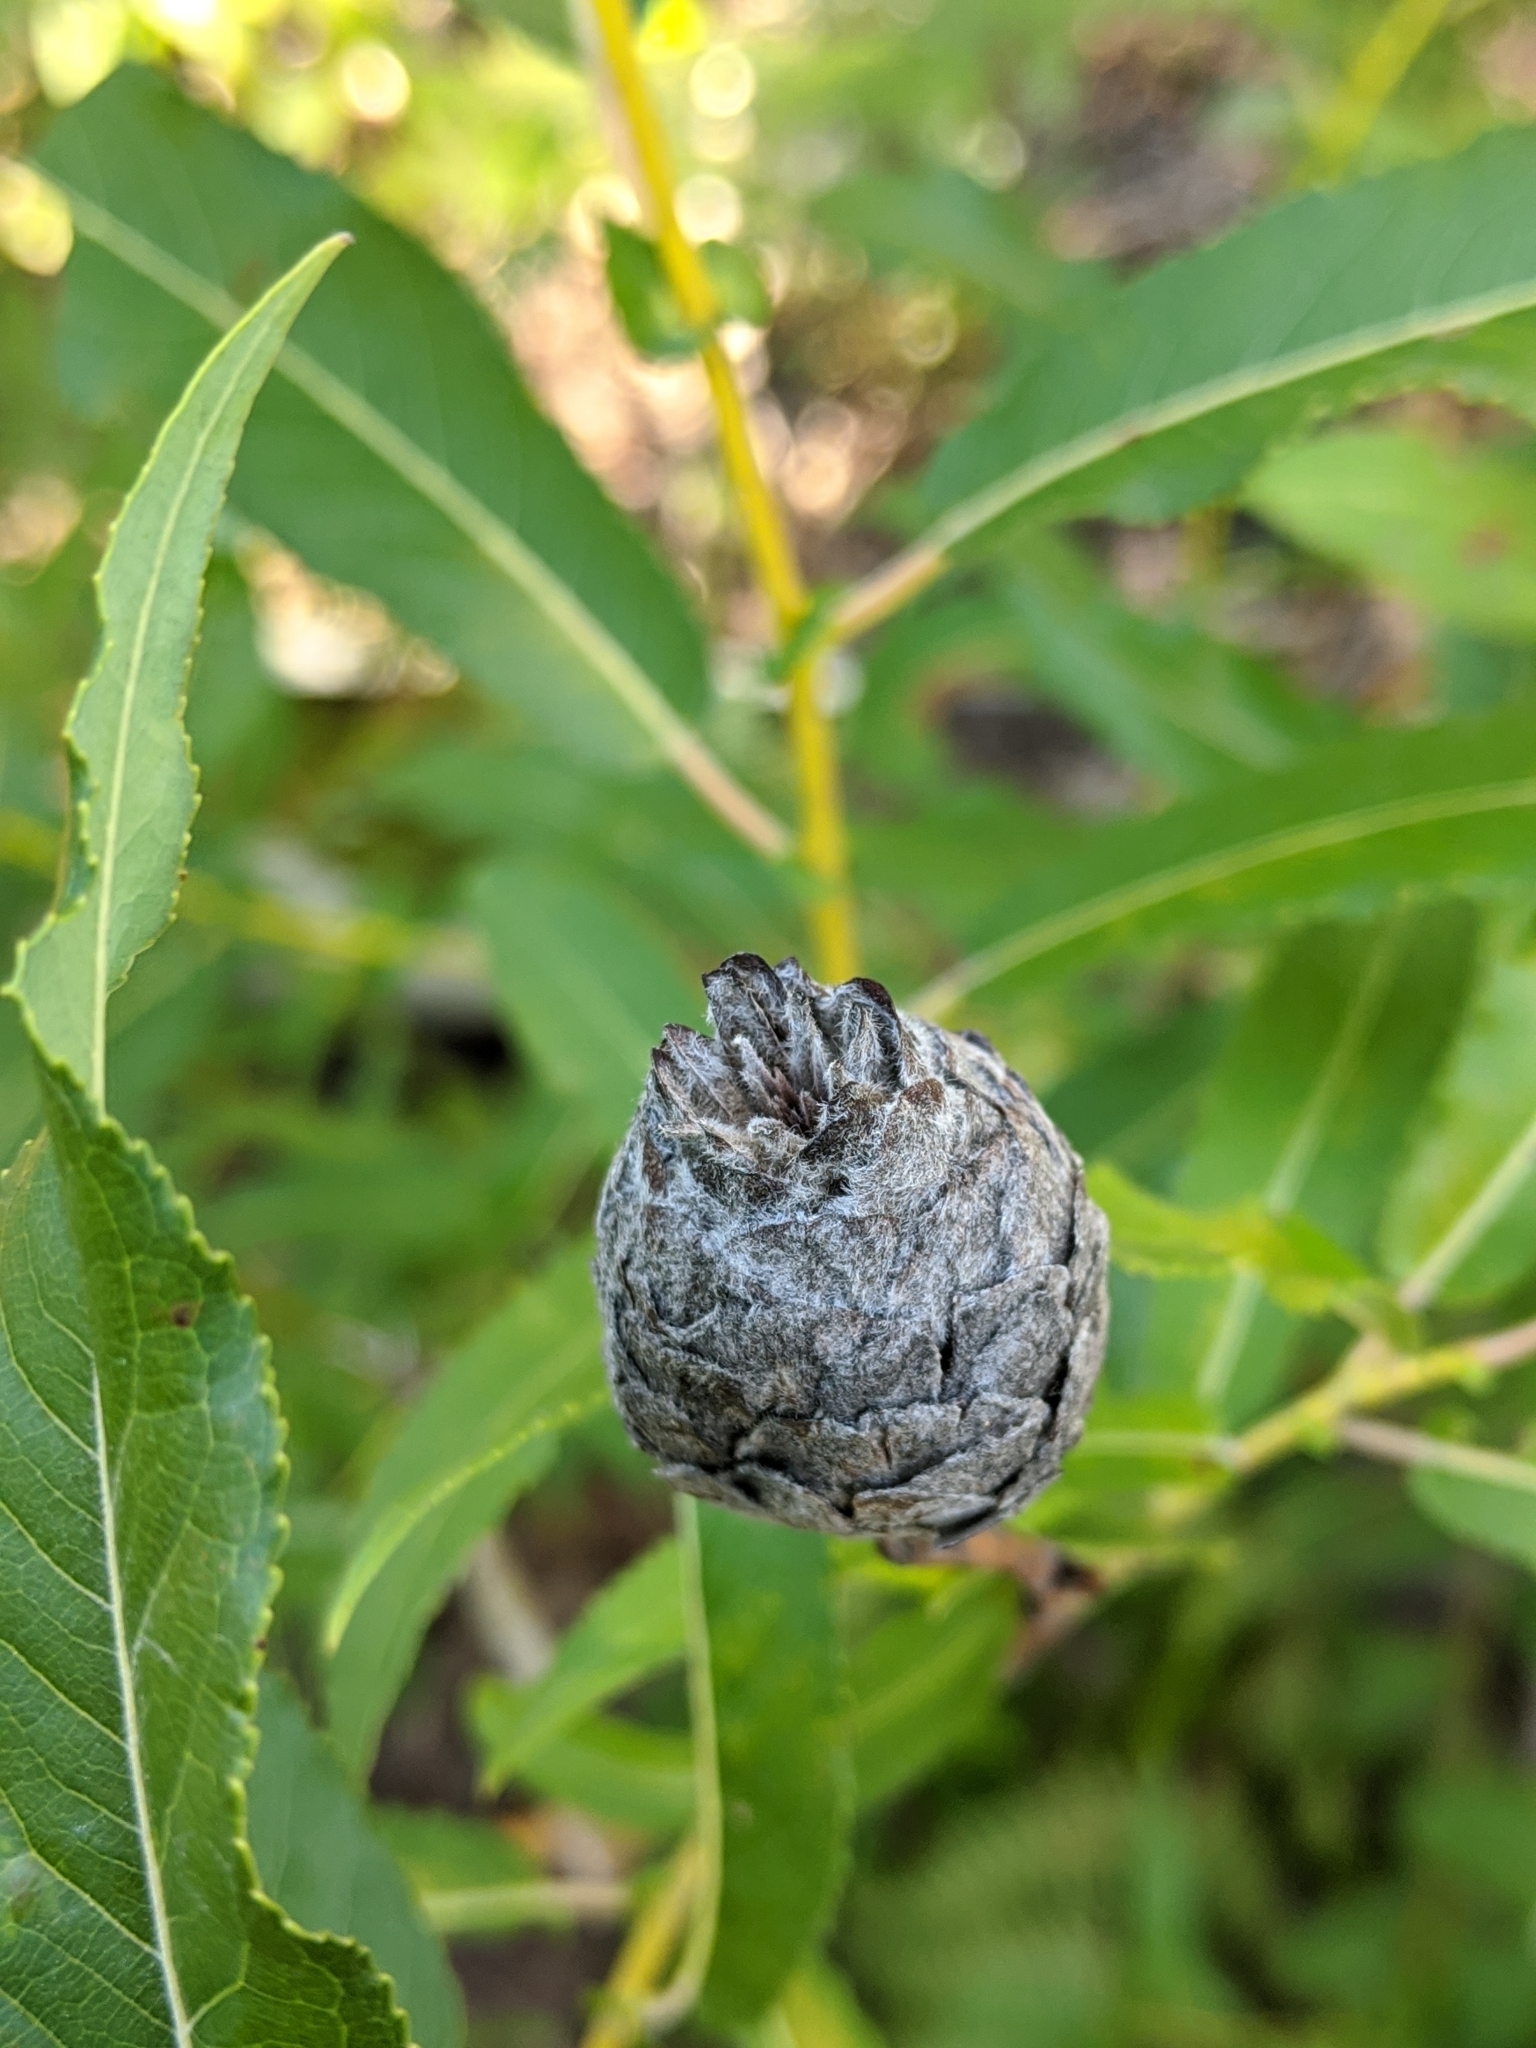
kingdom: Animalia
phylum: Arthropoda
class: Insecta
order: Diptera
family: Cecidomyiidae
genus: Rabdophaga
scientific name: Rabdophaga strobiloides
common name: Willow pinecone gall midge
